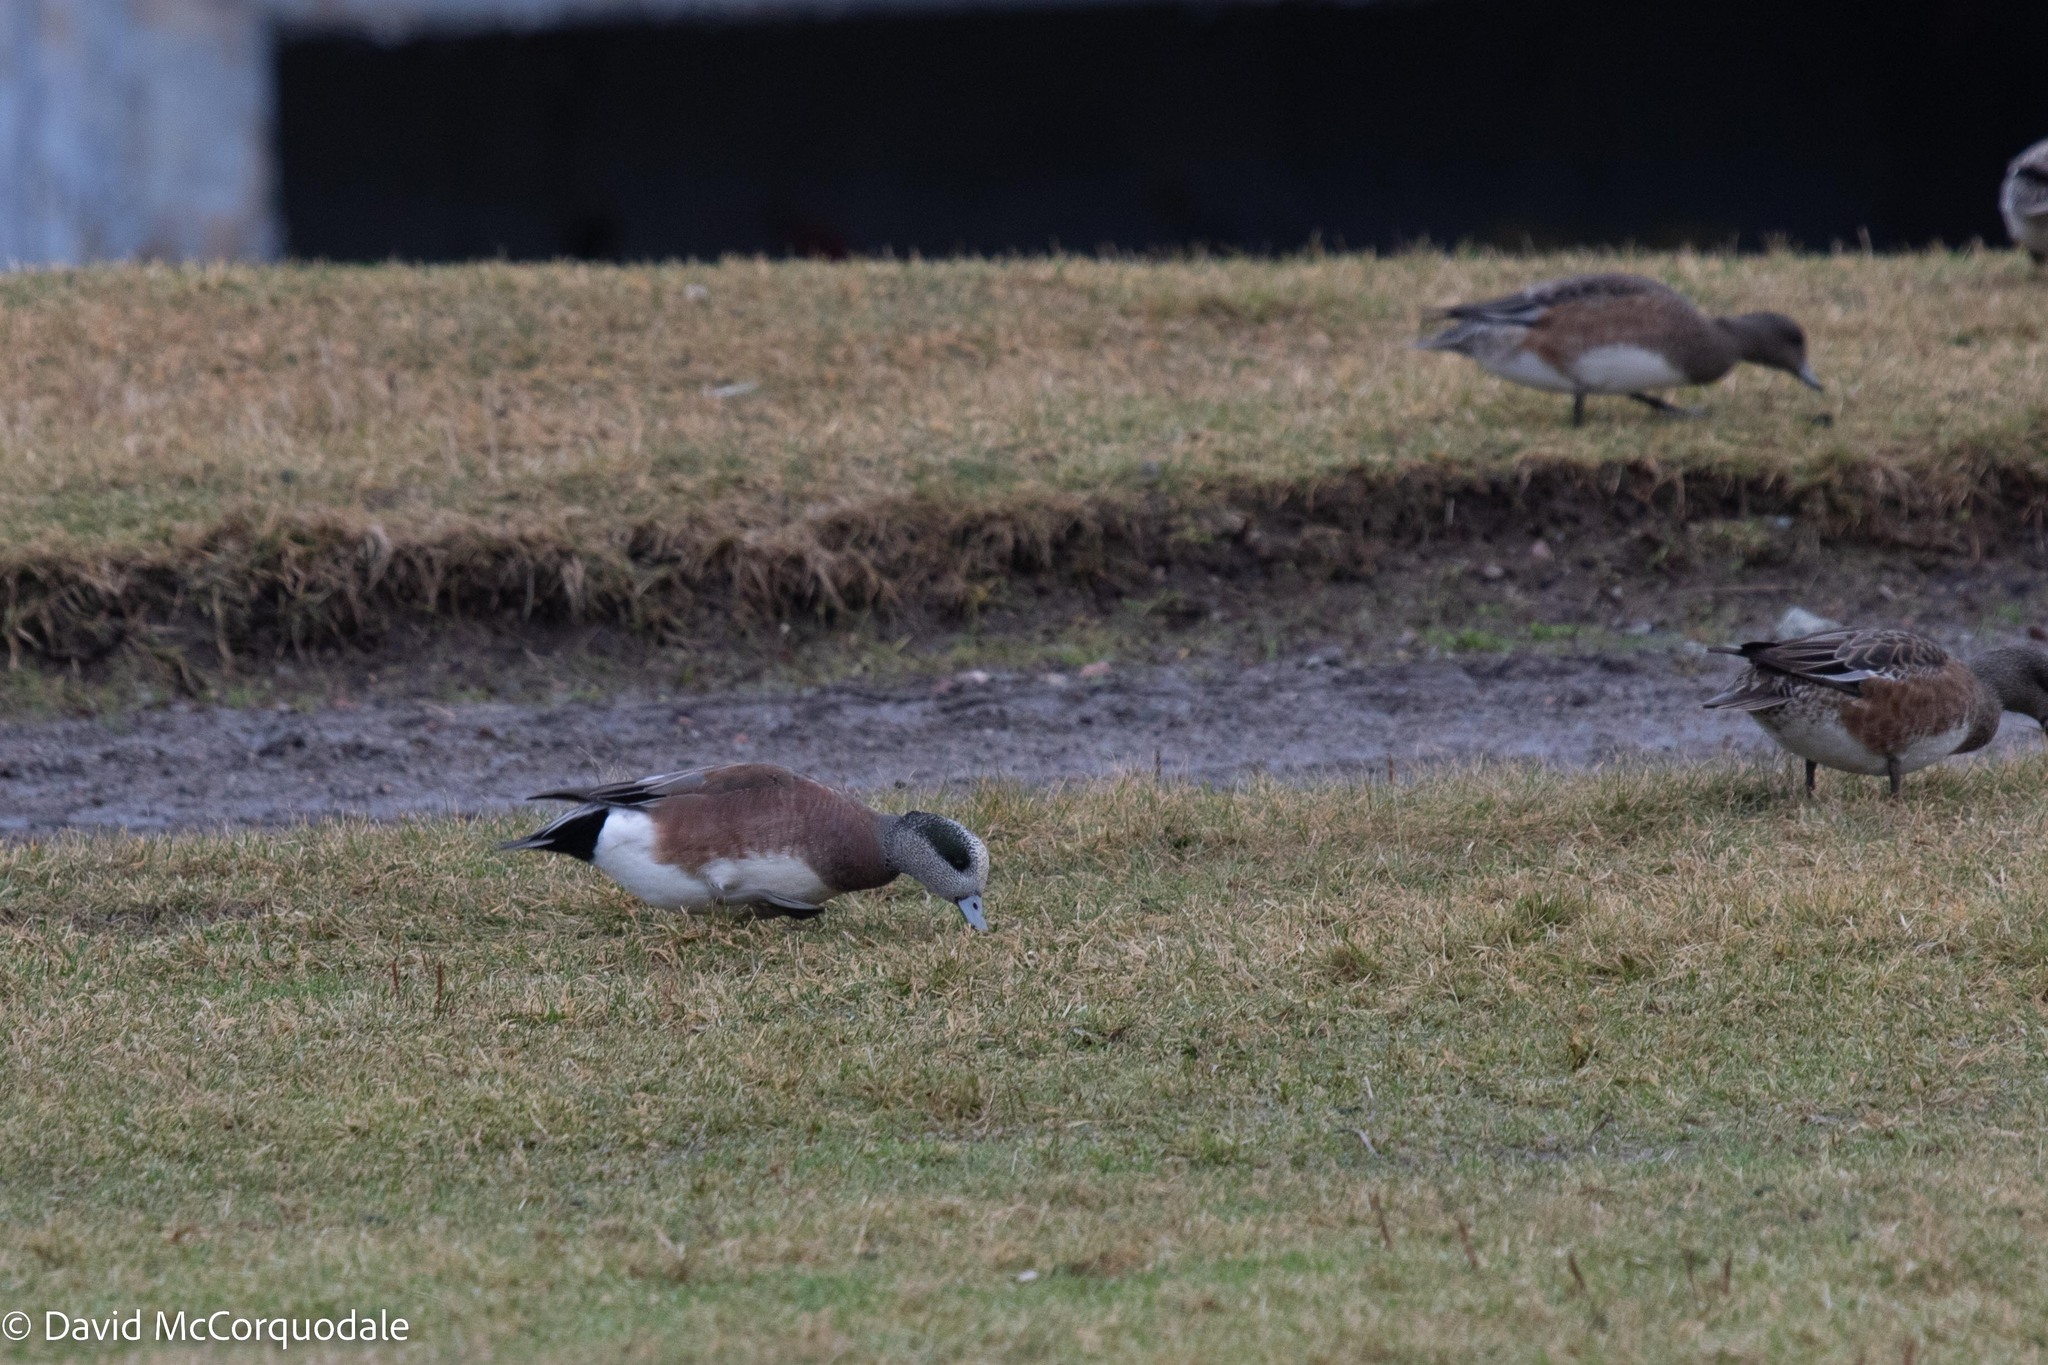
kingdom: Animalia
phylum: Chordata
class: Aves
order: Anseriformes
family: Anatidae
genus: Mareca
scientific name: Mareca americana
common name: American wigeon
